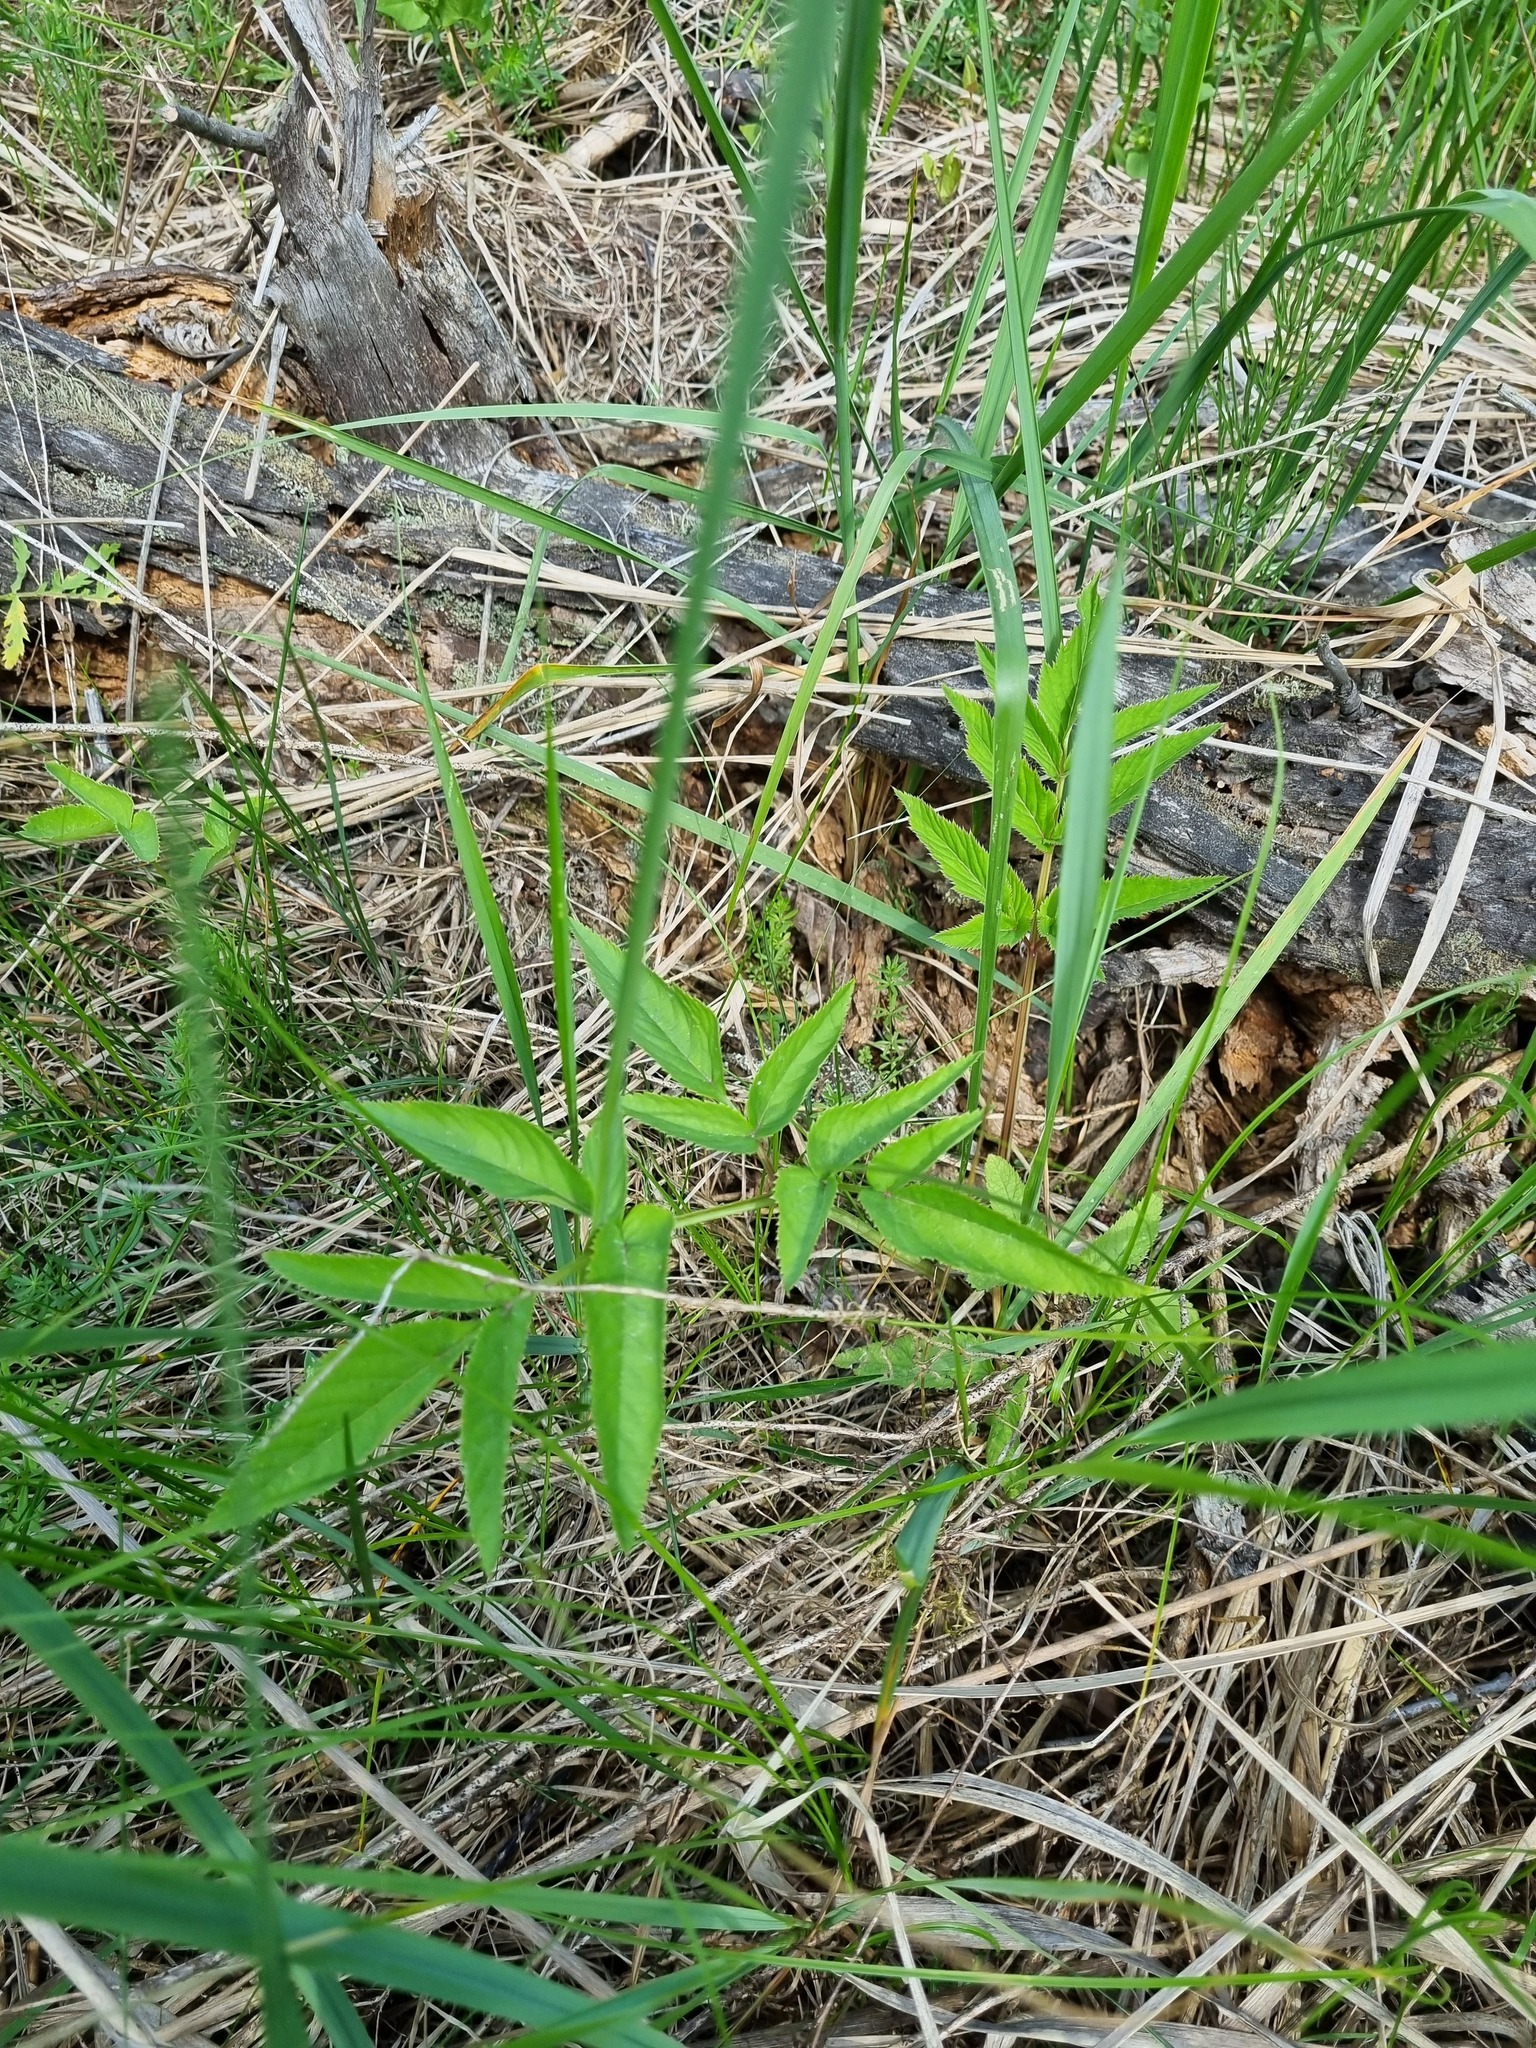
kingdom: Plantae
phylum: Tracheophyta
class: Magnoliopsida
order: Apiales
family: Apiaceae
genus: Angelica
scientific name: Angelica sylvestris
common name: Wild angelica
